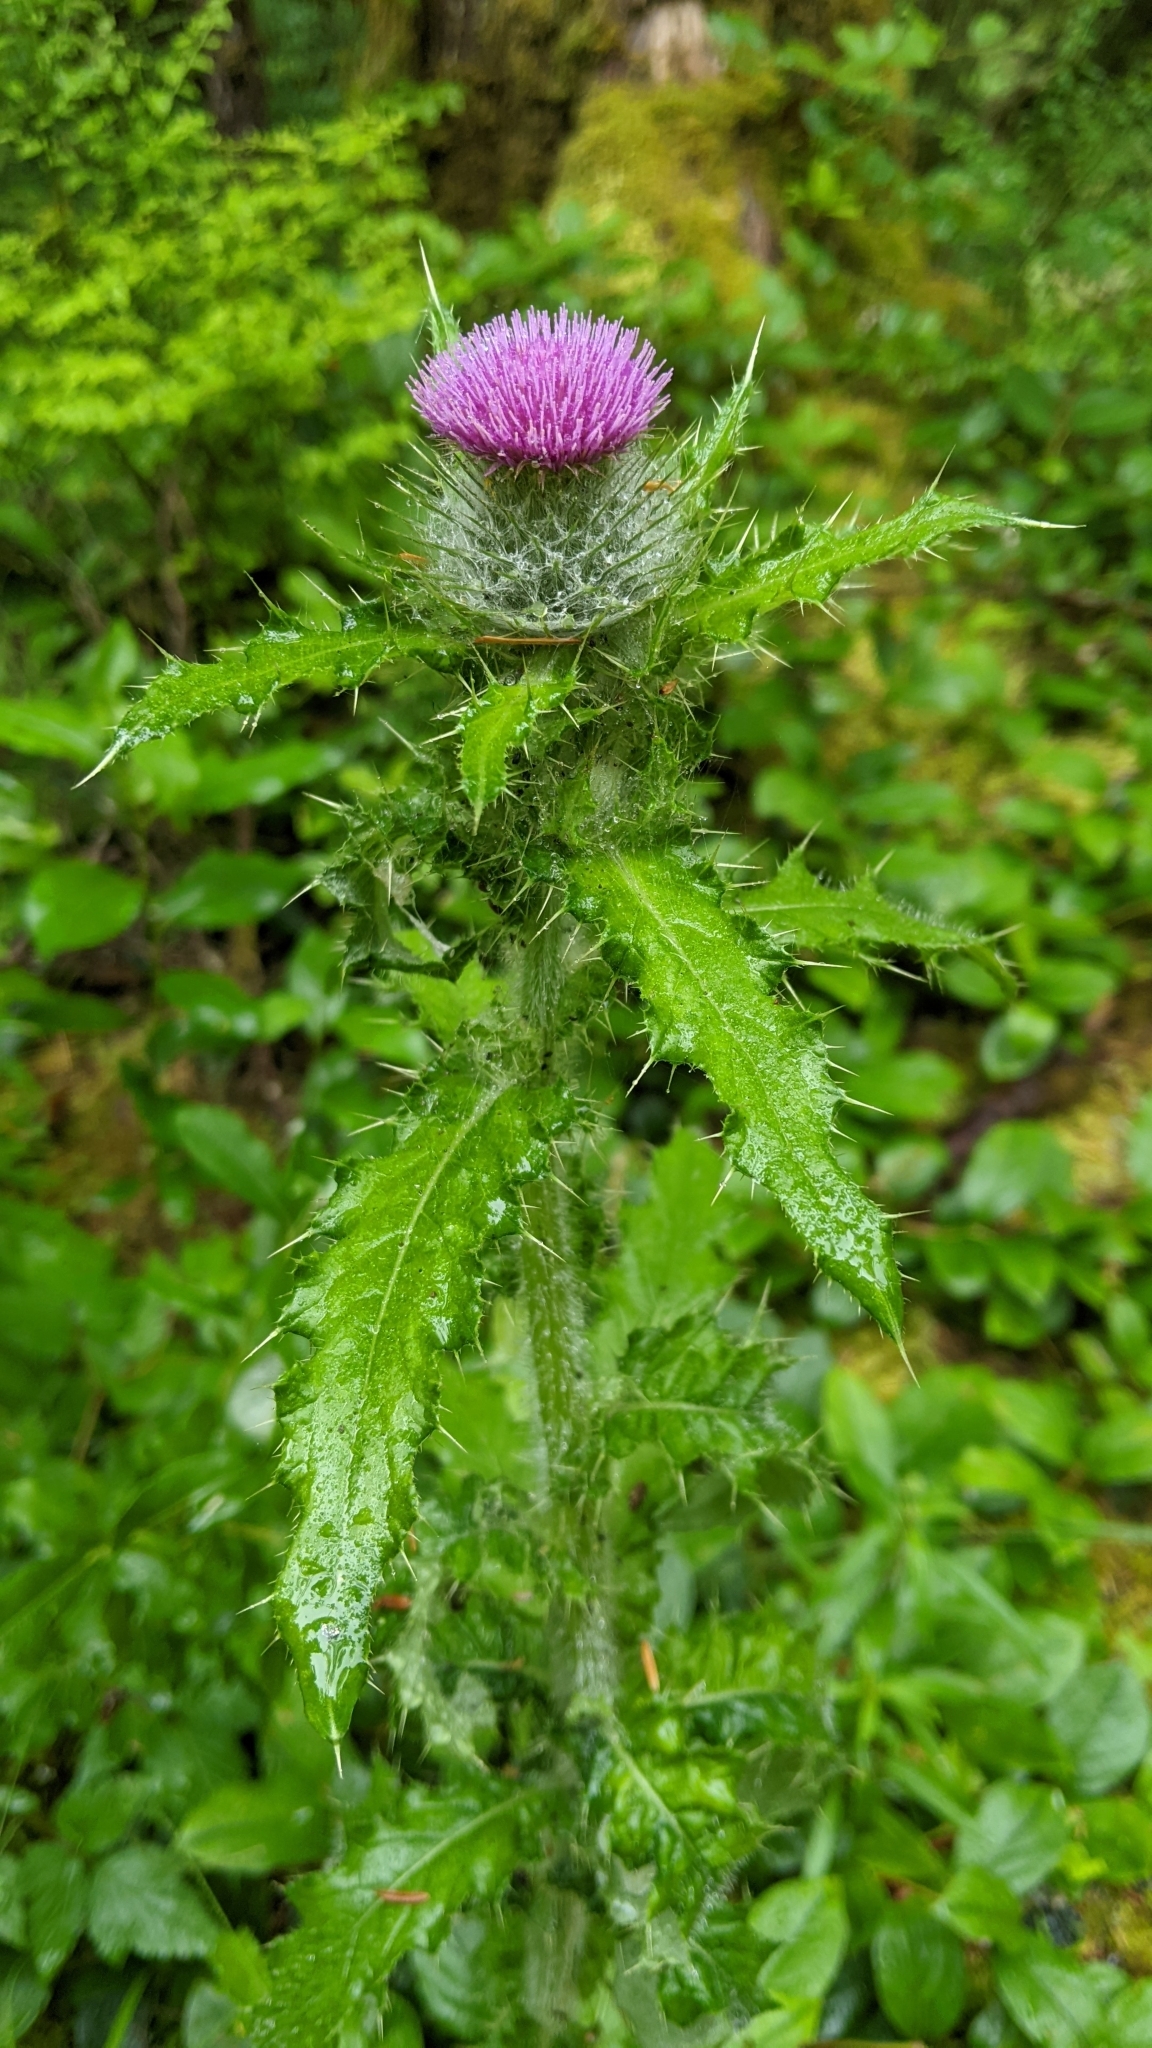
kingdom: Plantae
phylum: Tracheophyta
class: Magnoliopsida
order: Asterales
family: Asteraceae
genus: Cirsium
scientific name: Cirsium brevistylum
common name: Indian thistle
